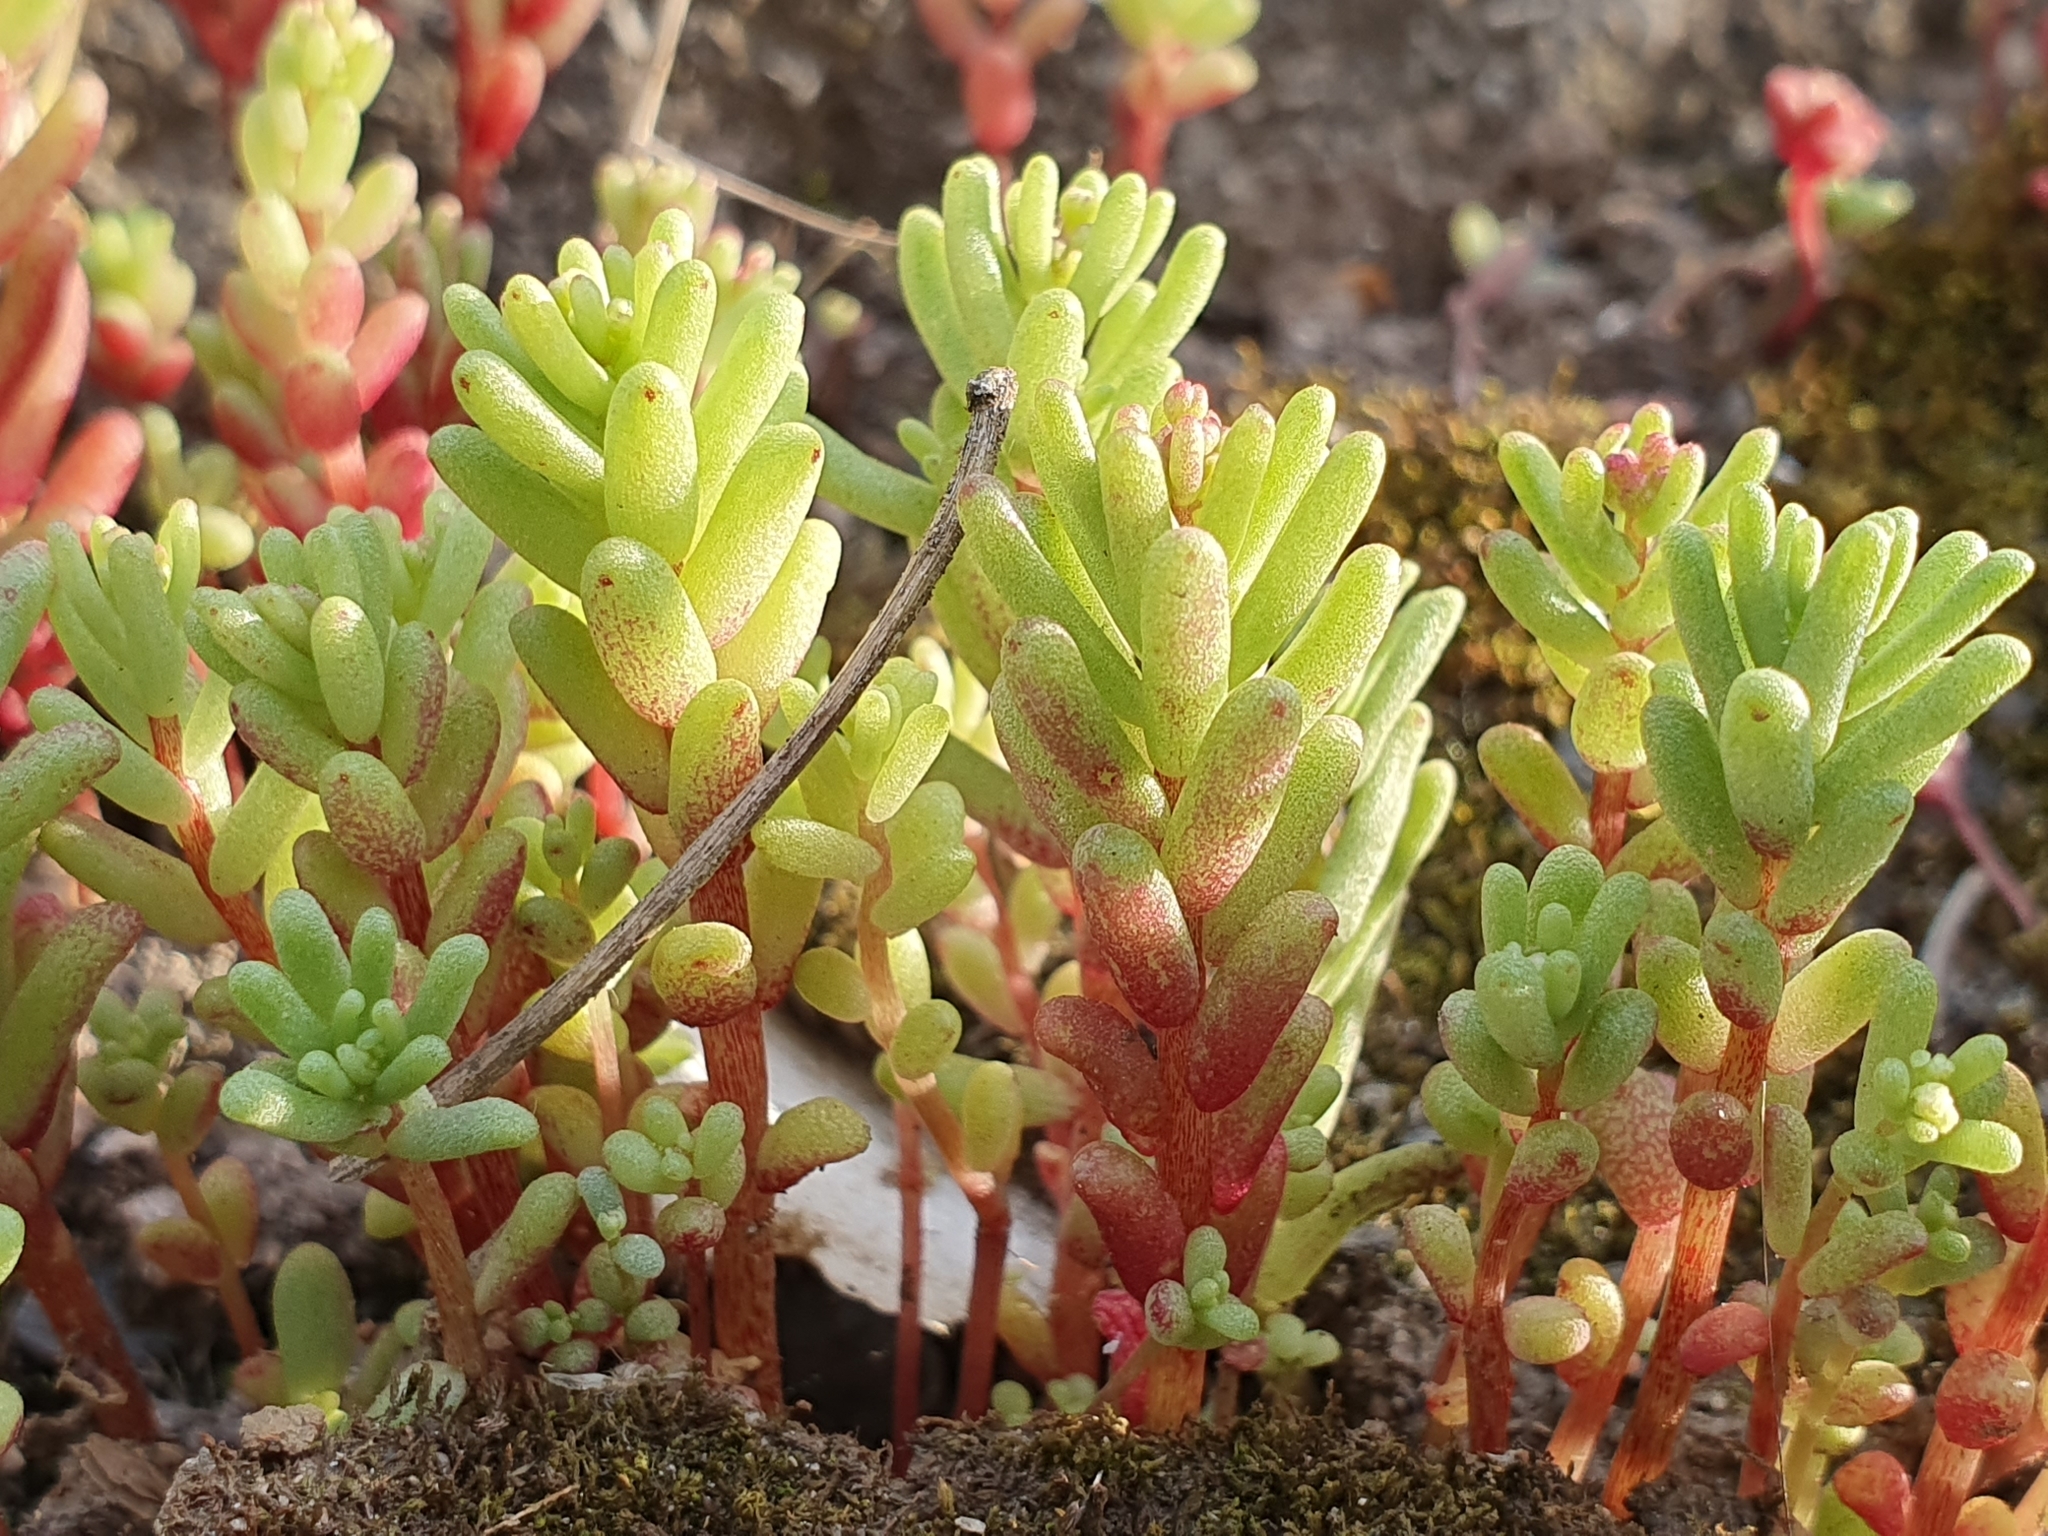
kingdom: Plantae
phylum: Tracheophyta
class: Magnoliopsida
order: Saxifragales
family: Crassulaceae
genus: Sedum
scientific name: Sedum caeruleum
